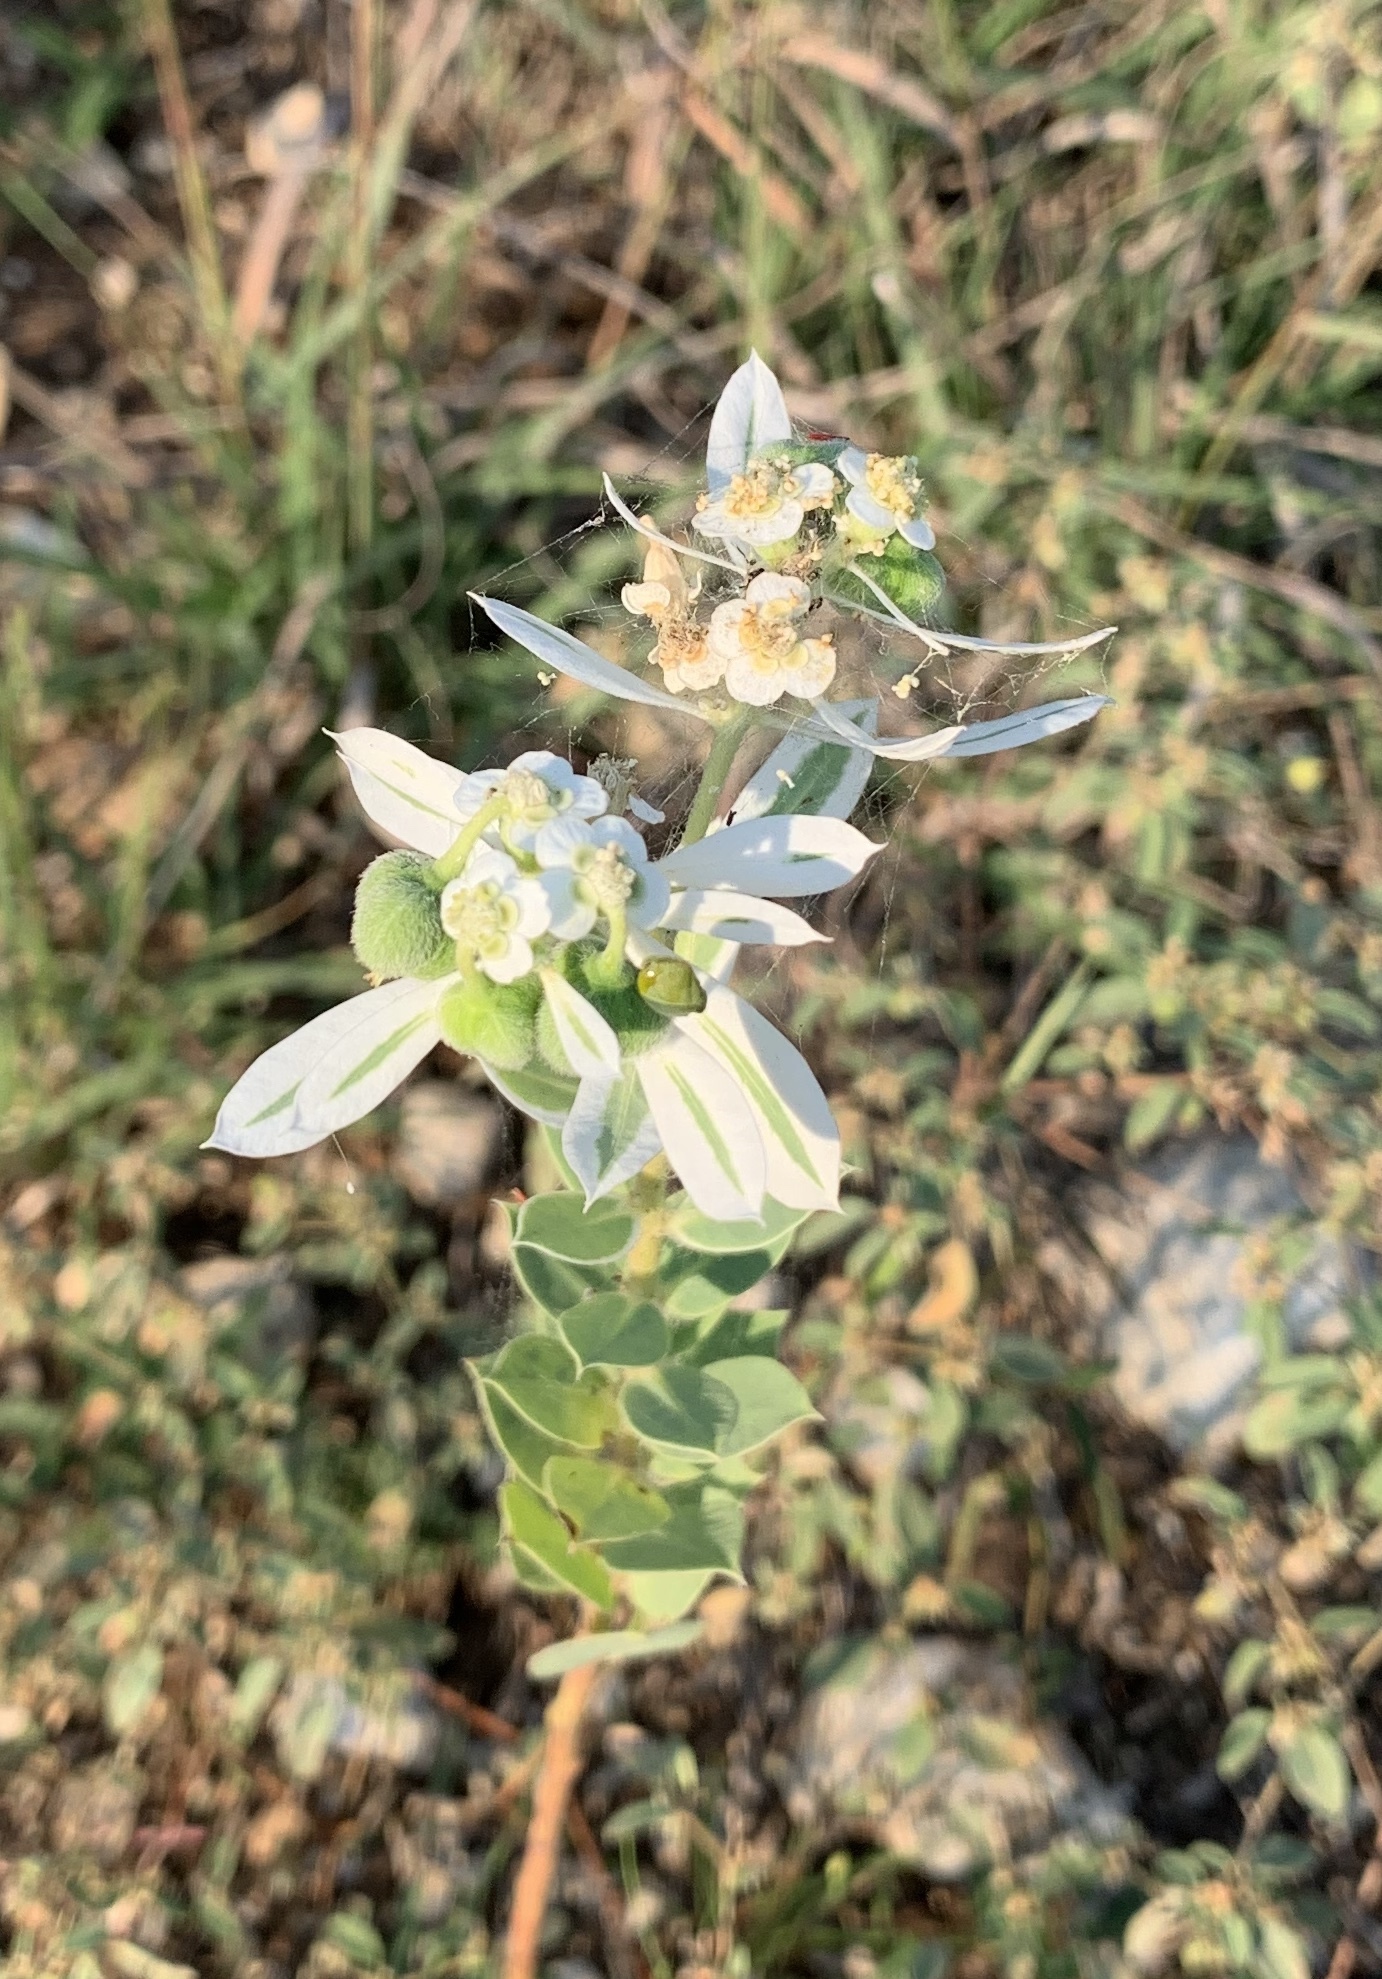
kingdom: Plantae
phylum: Tracheophyta
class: Magnoliopsida
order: Malpighiales
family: Euphorbiaceae
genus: Euphorbia
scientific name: Euphorbia marginata
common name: Ghostweed
